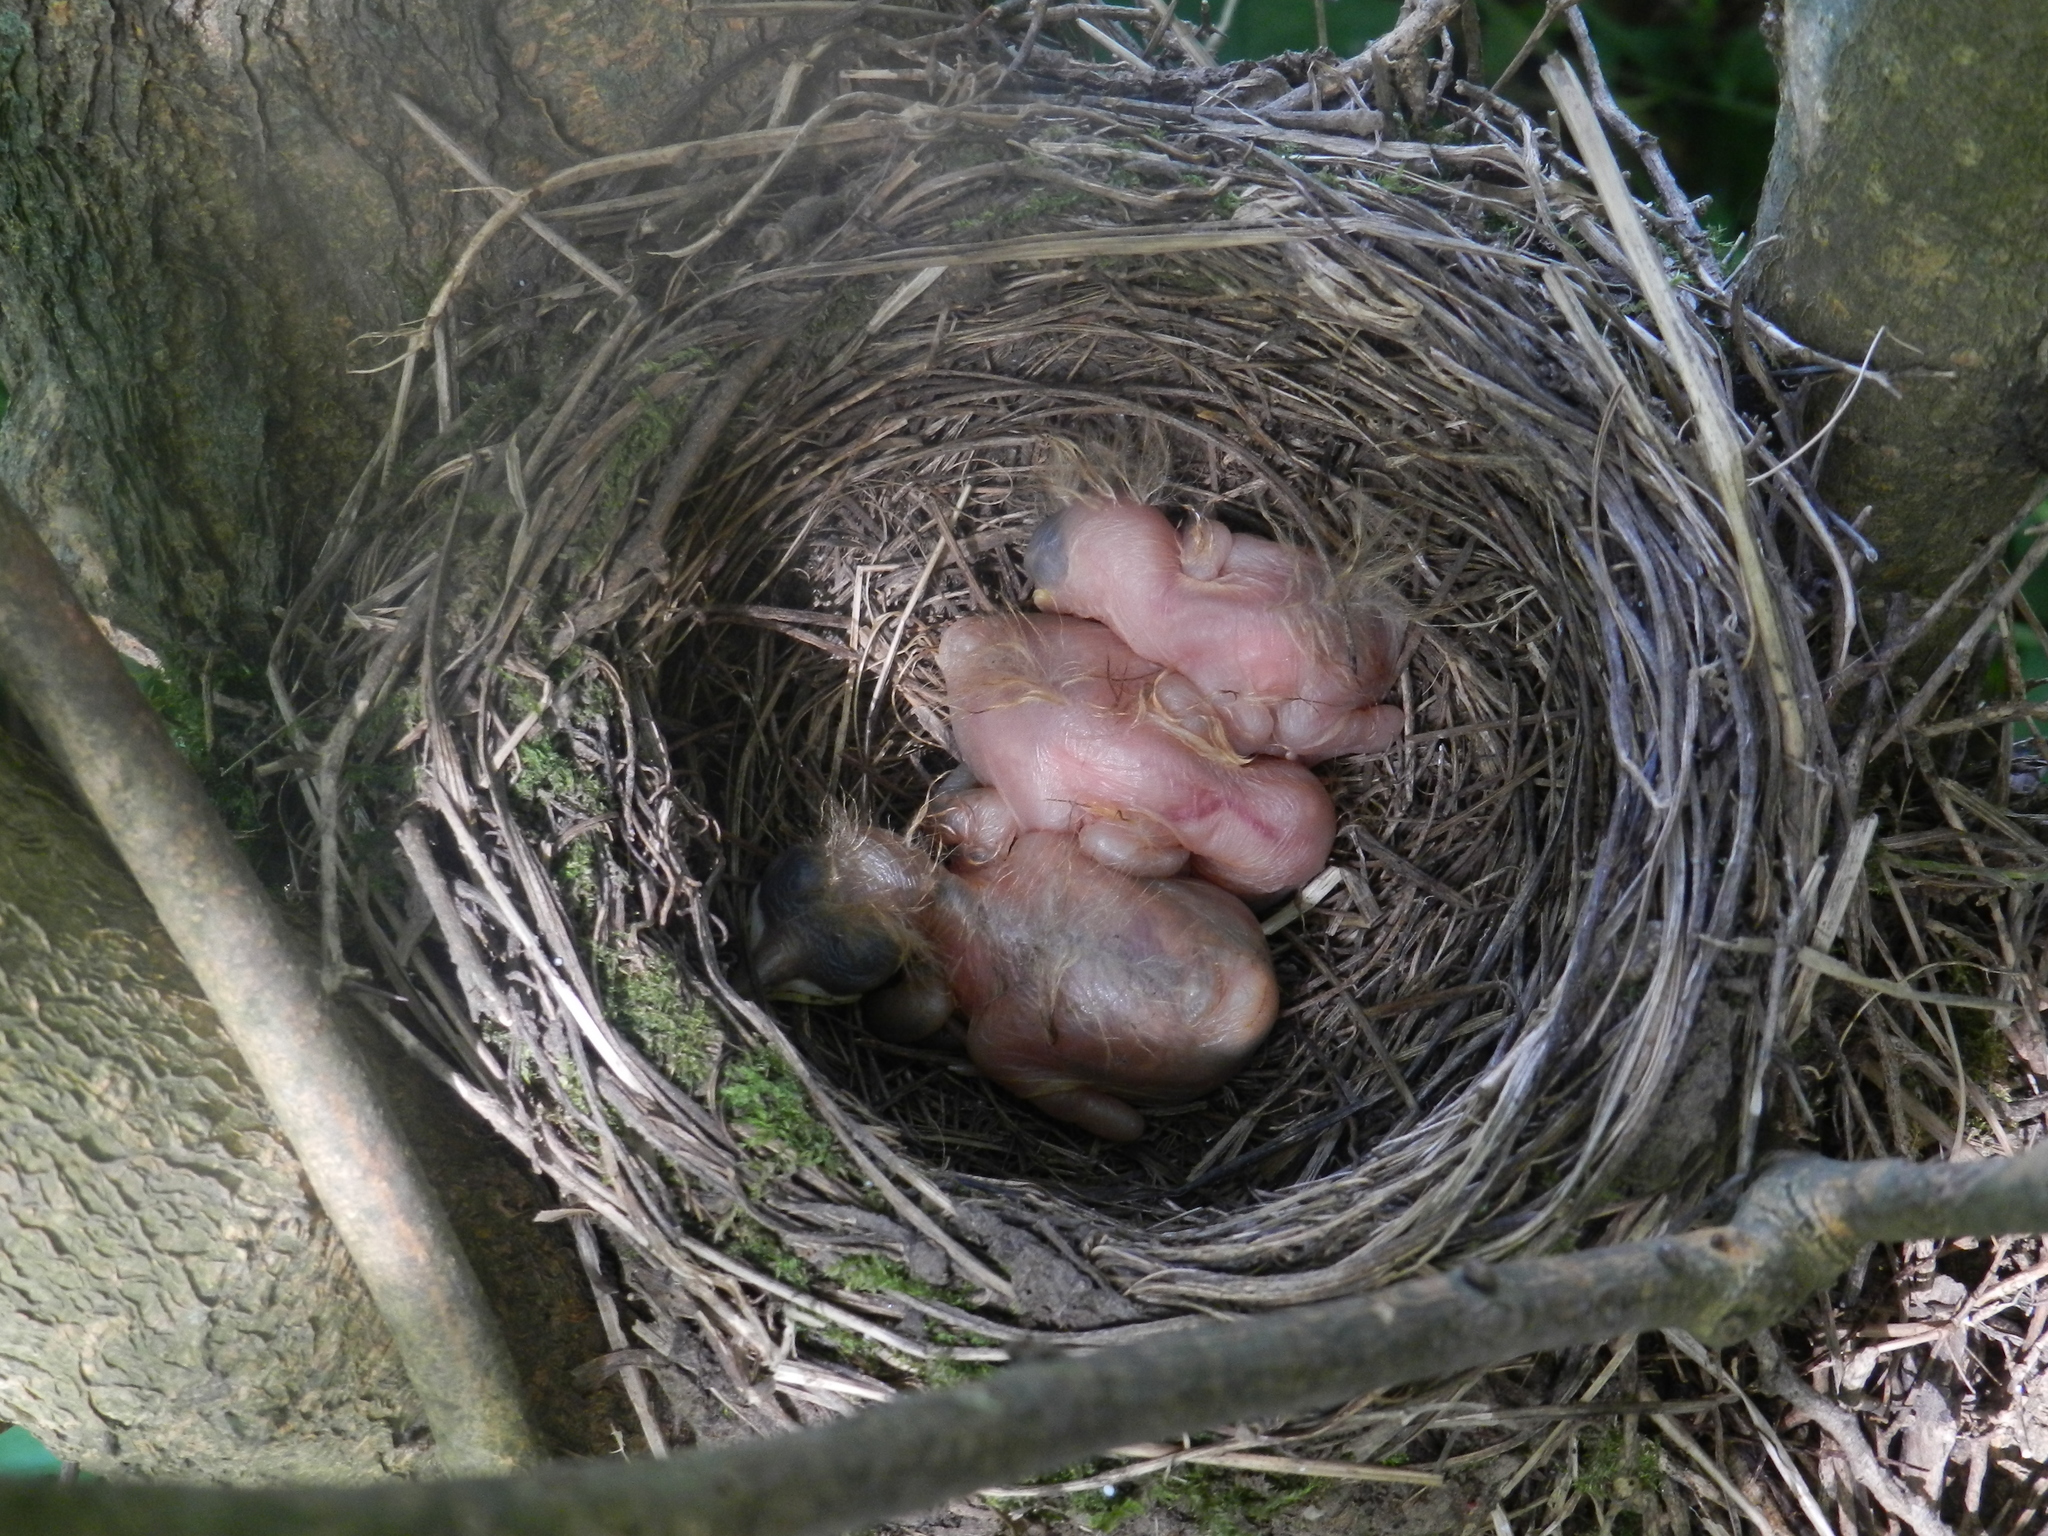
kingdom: Animalia
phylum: Chordata
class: Aves
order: Passeriformes
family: Turdidae
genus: Turdus
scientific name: Turdus rufiventris
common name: Rufous-bellied thrush
